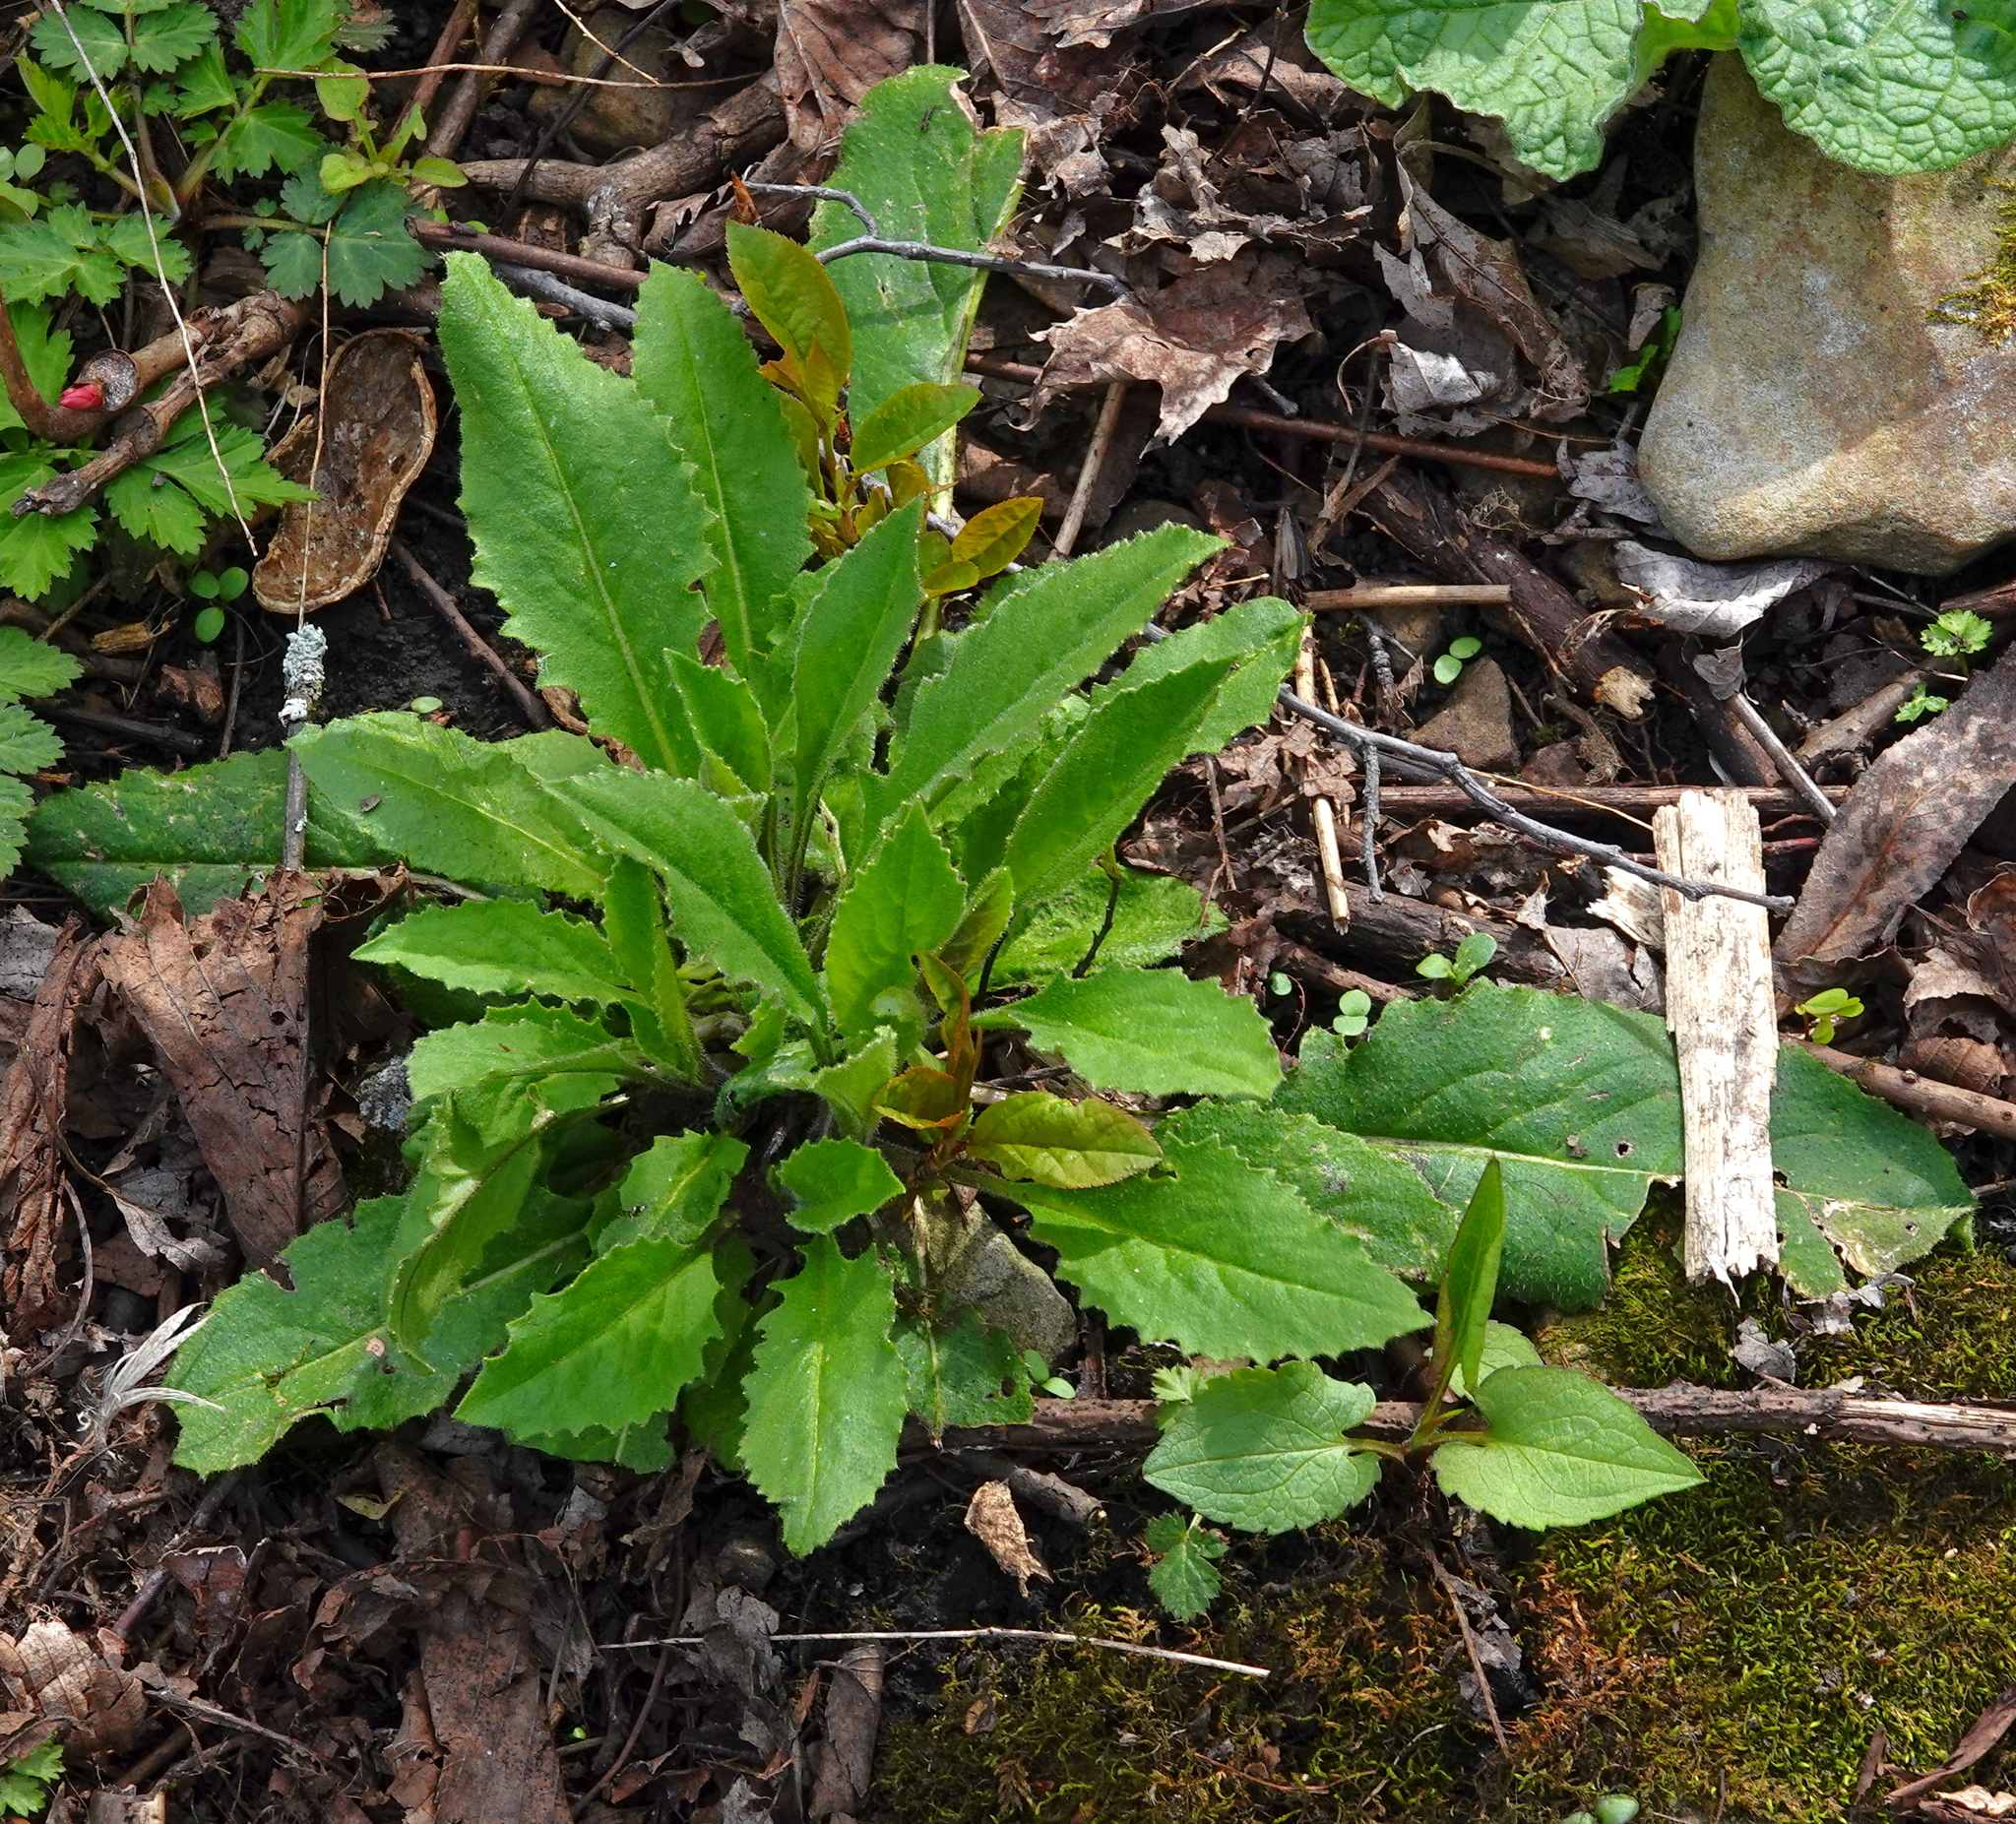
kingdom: Plantae
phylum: Tracheophyta
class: Magnoliopsida
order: Brassicales
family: Brassicaceae
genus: Hesperis
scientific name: Hesperis matronalis
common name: Dame's-violet
